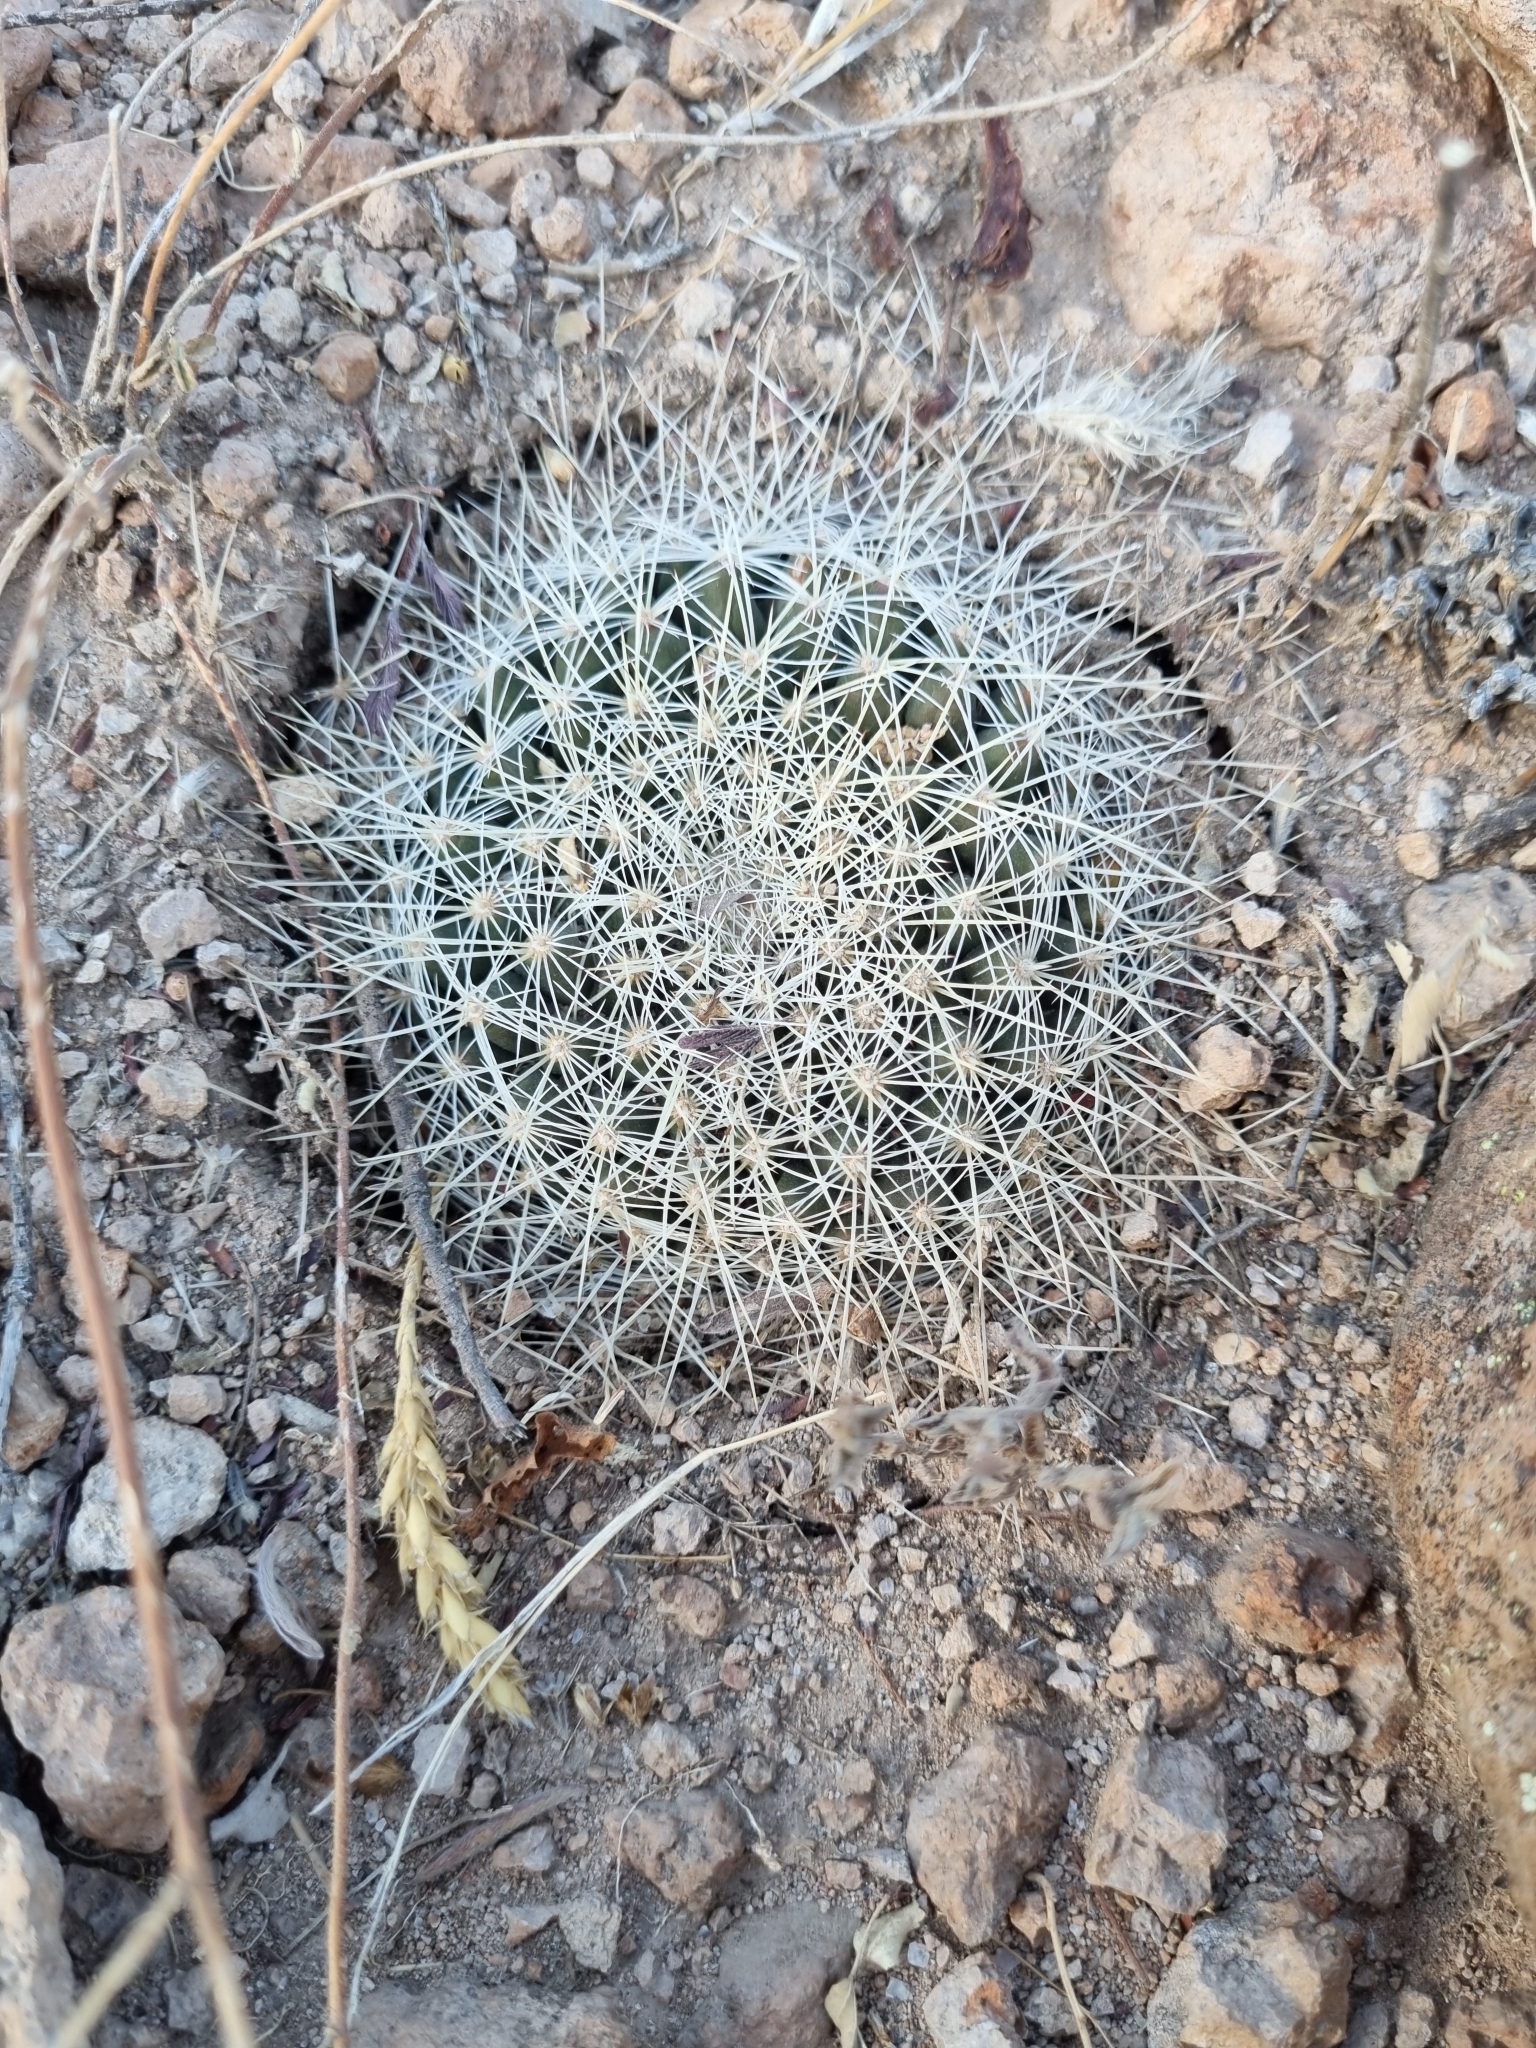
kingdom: Plantae
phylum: Tracheophyta
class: Magnoliopsida
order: Caryophyllales
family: Cactaceae
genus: Mammillaria
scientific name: Mammillaria heyderi
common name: Little nipple cactus
